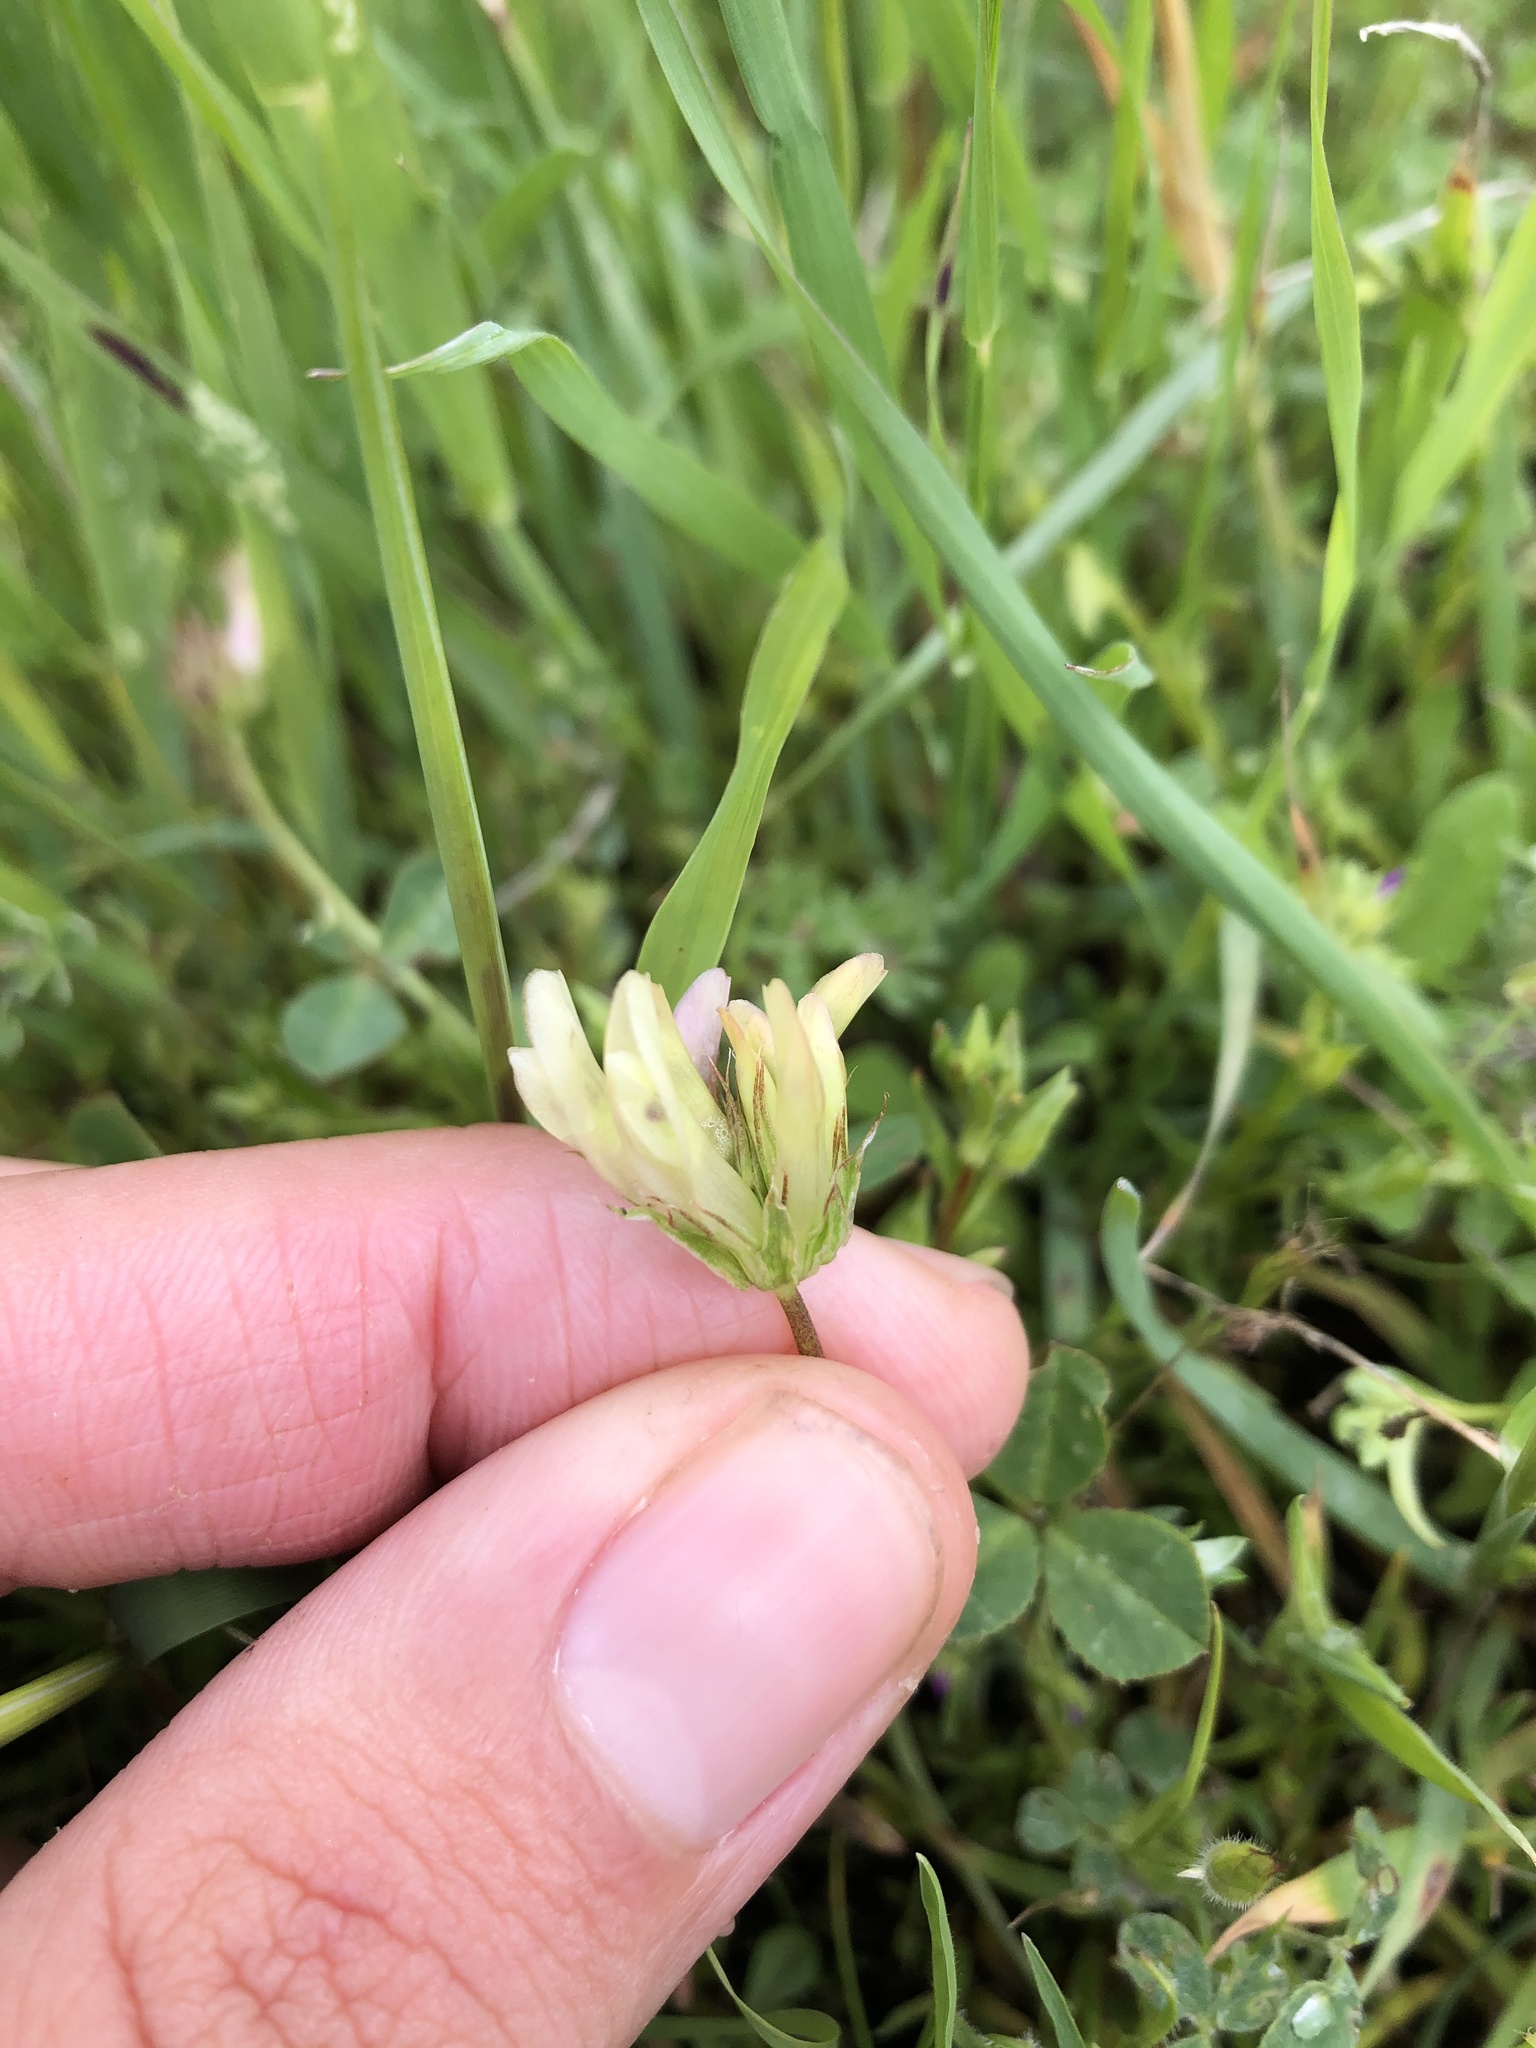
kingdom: Plantae
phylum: Tracheophyta
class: Magnoliopsida
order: Fabales
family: Fabaceae
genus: Trifolium
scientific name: Trifolium fucatum
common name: Puff clover
